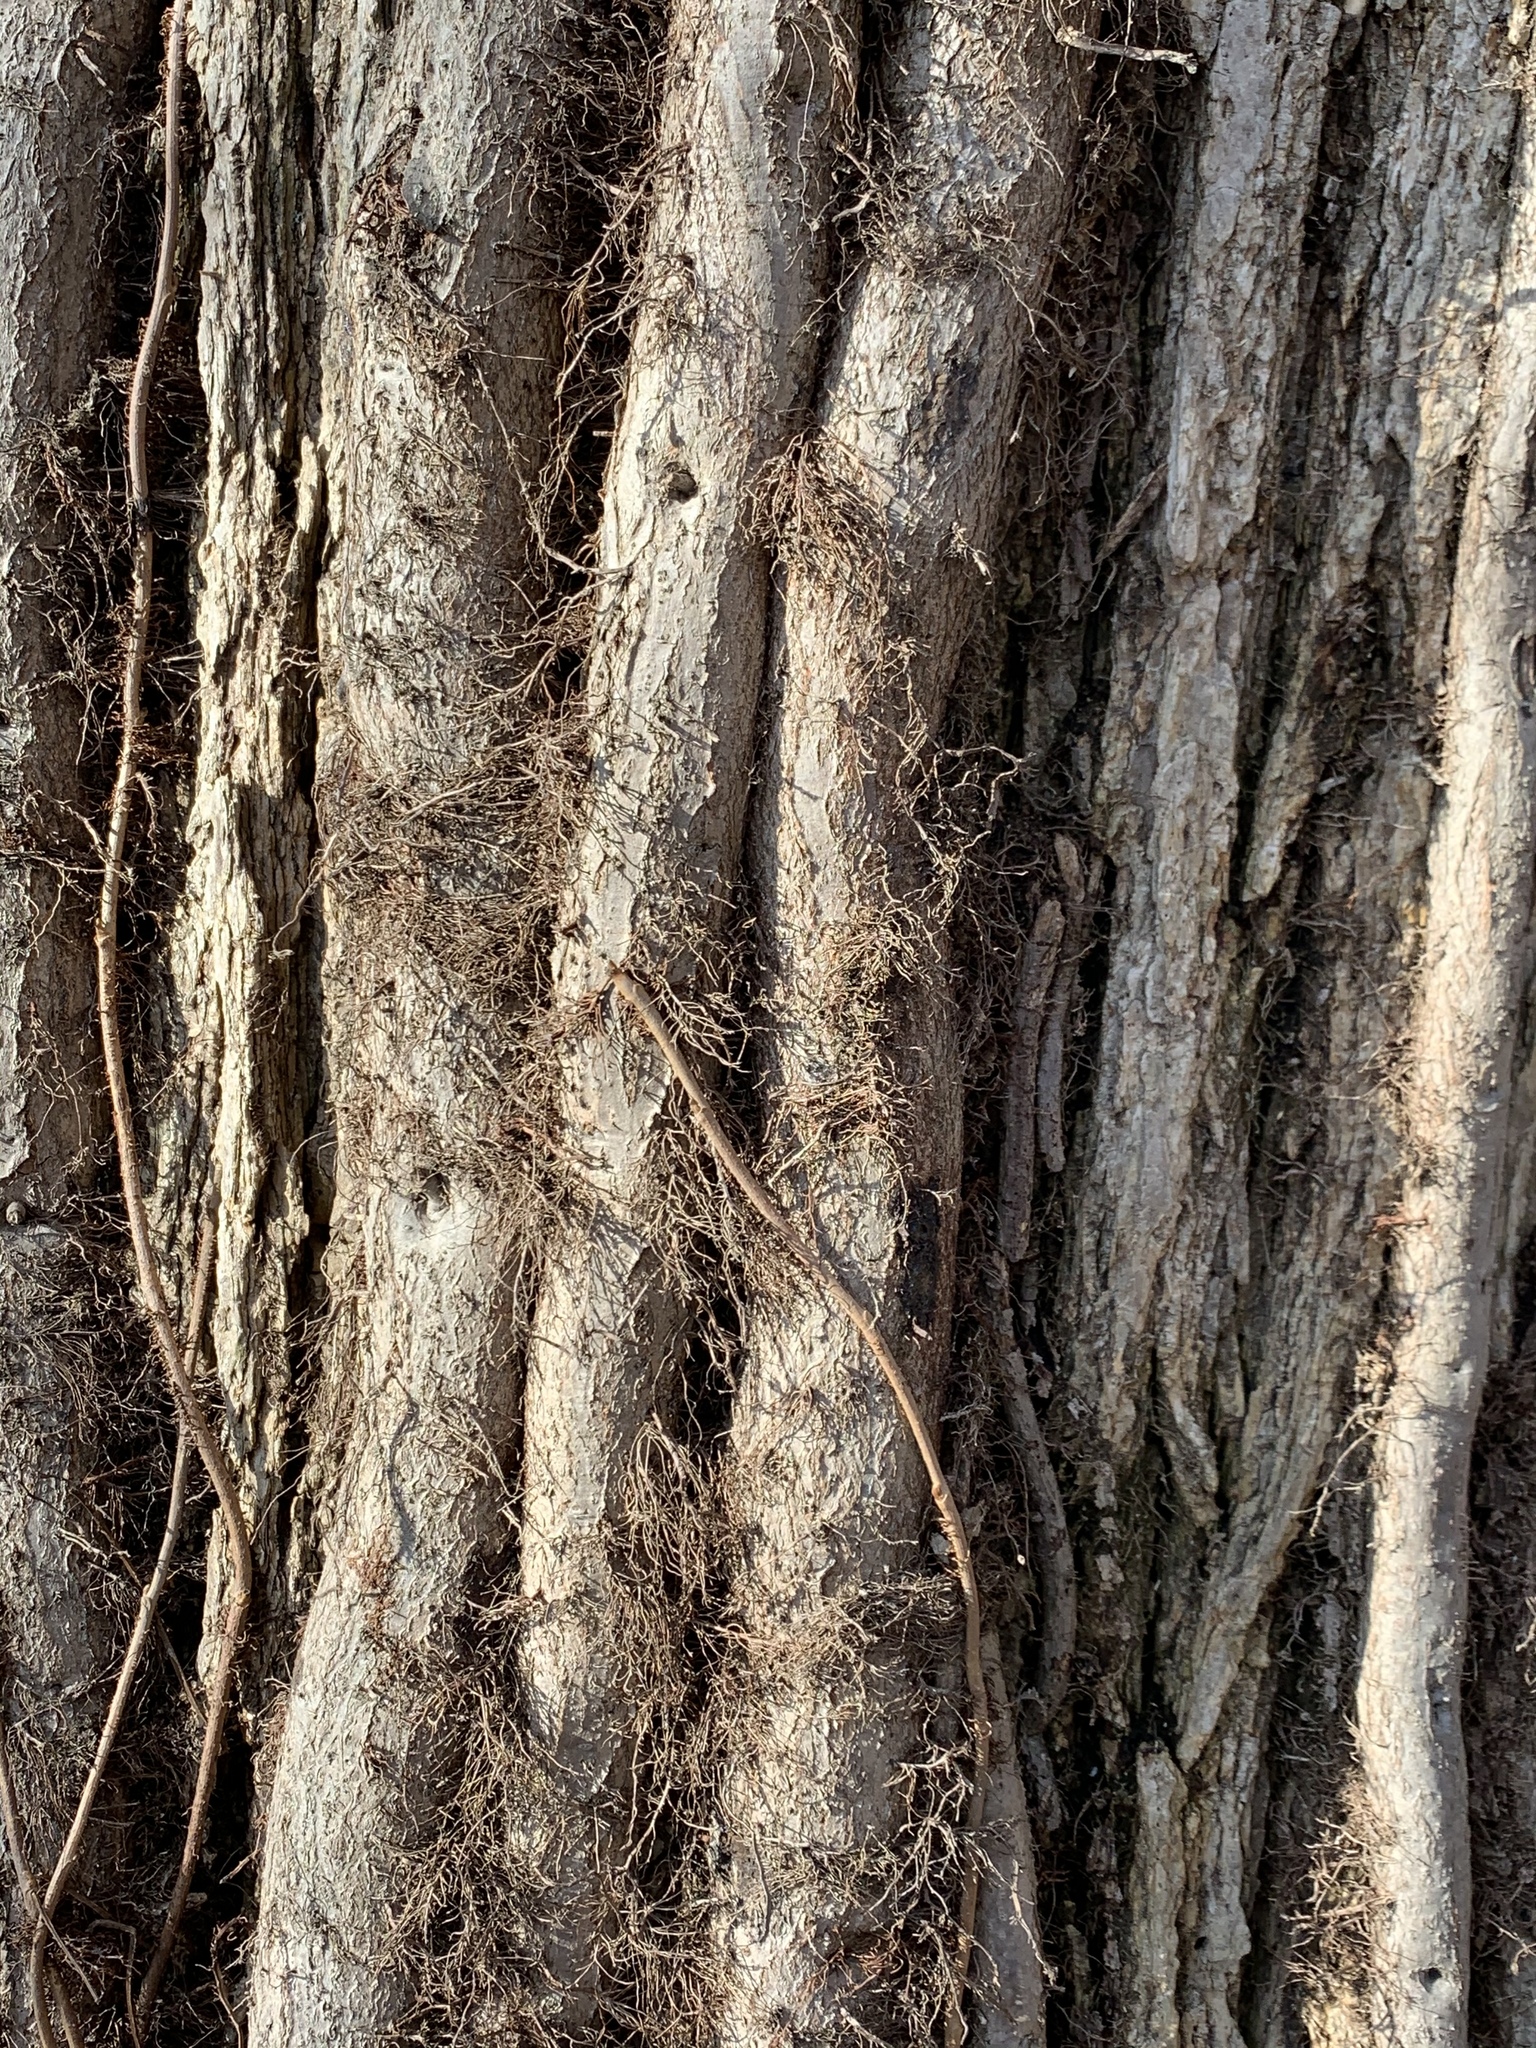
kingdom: Plantae
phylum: Tracheophyta
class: Magnoliopsida
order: Sapindales
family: Anacardiaceae
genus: Toxicodendron
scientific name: Toxicodendron radicans
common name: Poison ivy
